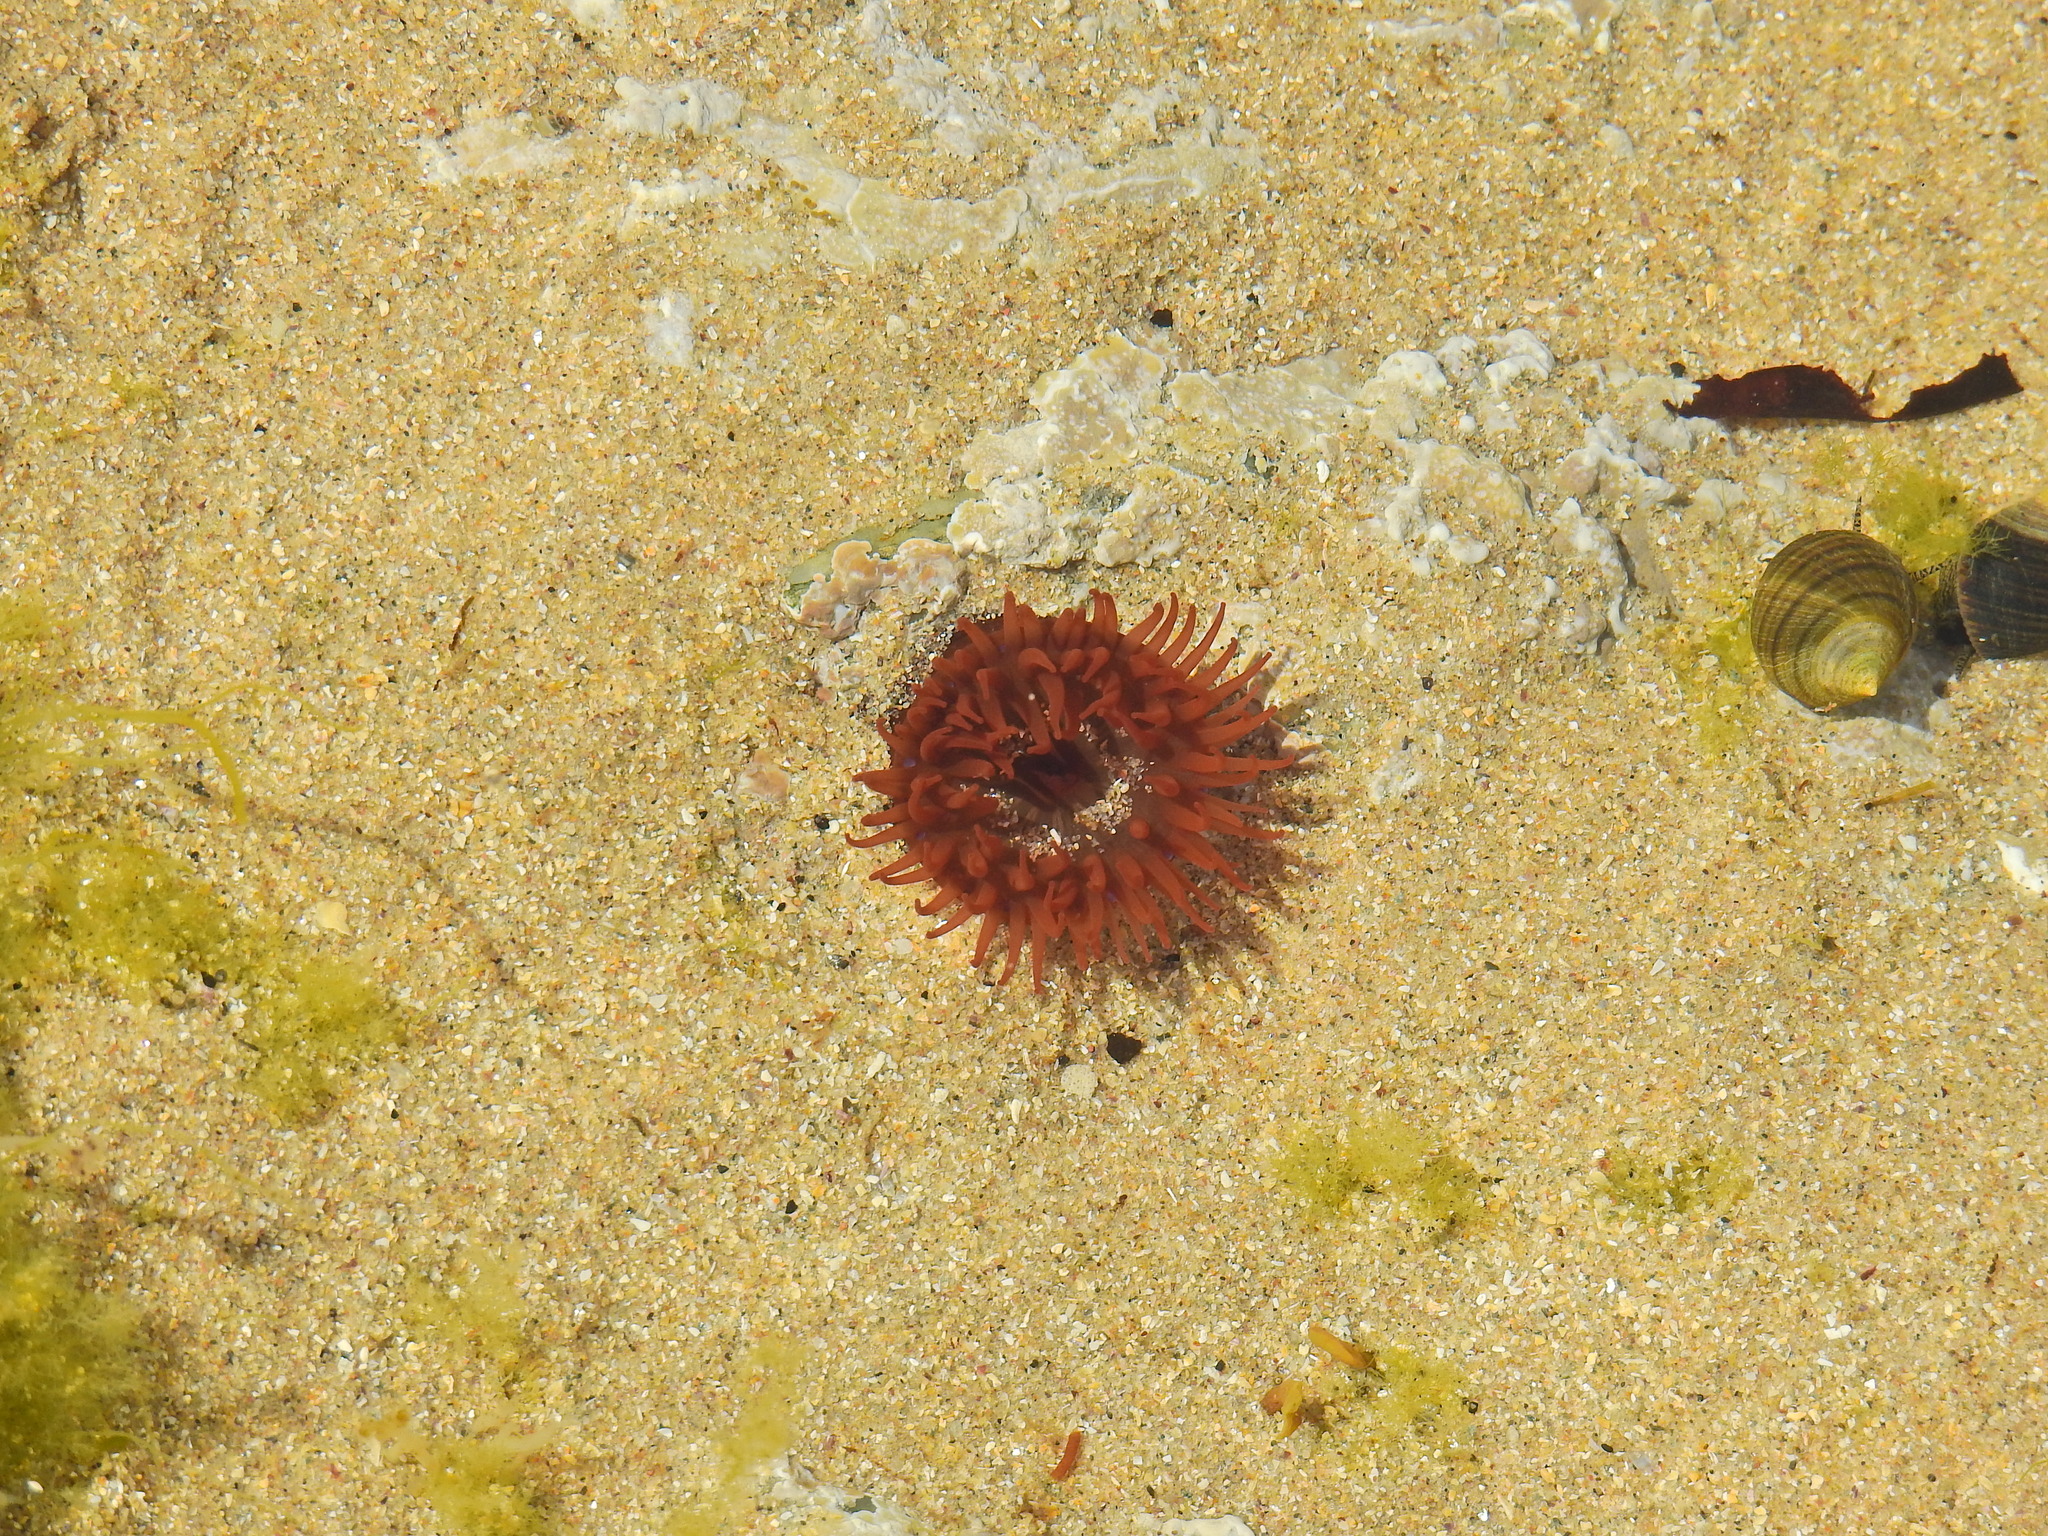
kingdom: Animalia
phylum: Cnidaria
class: Anthozoa
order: Actiniaria
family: Actiniidae
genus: Actinia
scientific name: Actinia equina
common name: Beadlet anemone
